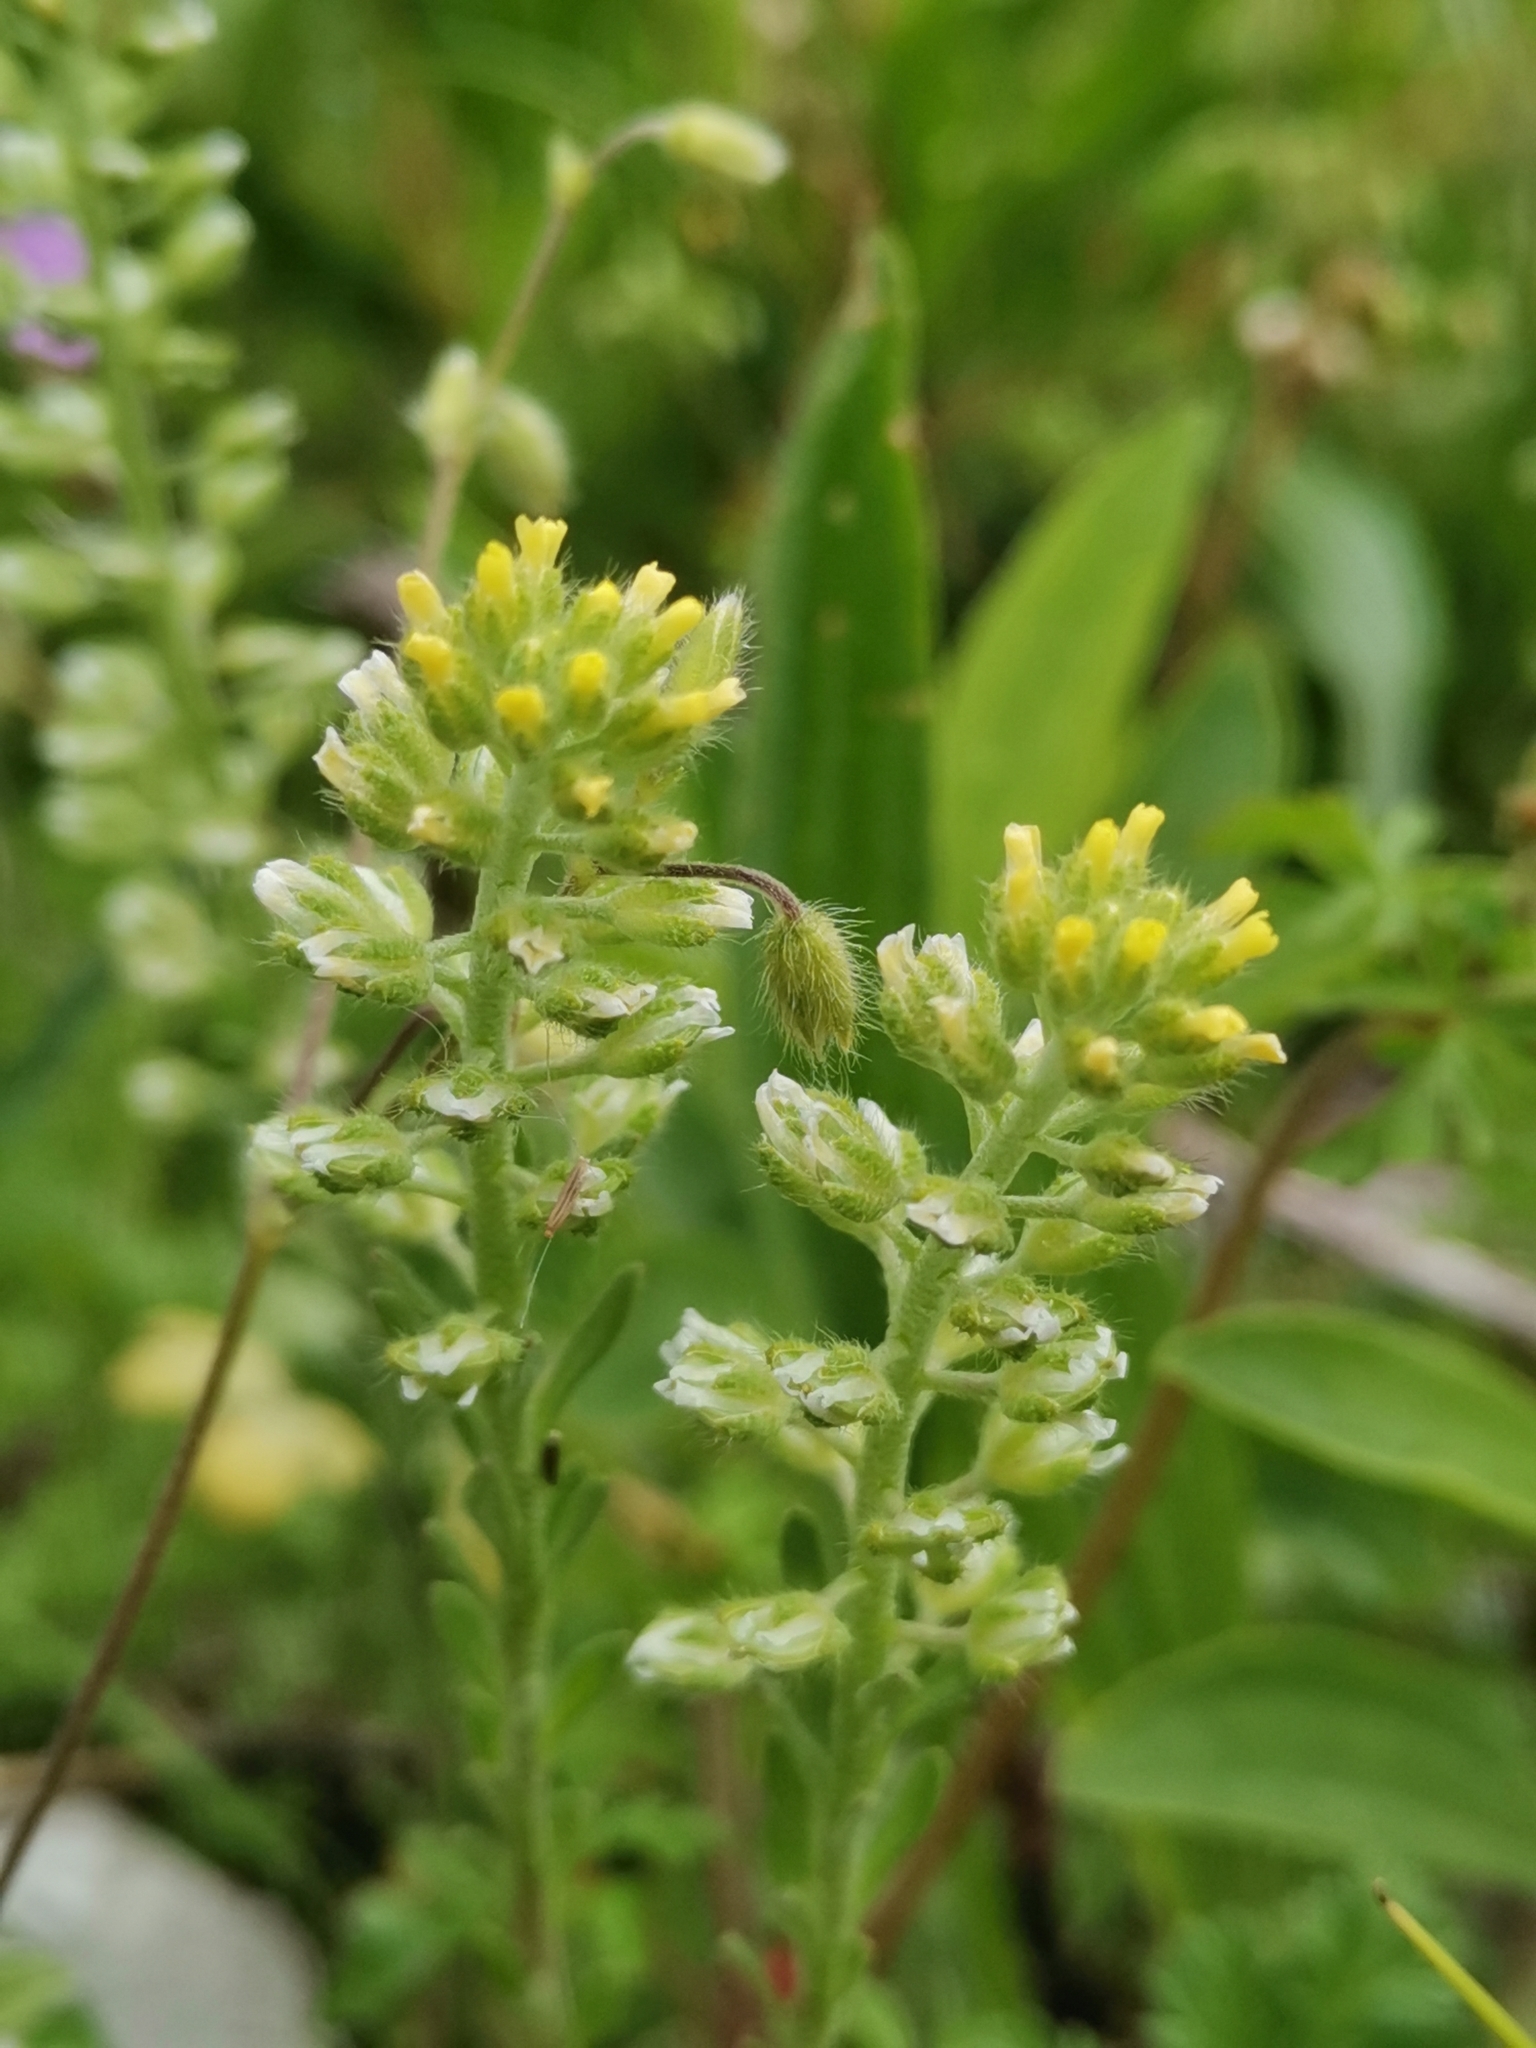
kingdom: Plantae
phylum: Tracheophyta
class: Magnoliopsida
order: Brassicales
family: Brassicaceae
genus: Alyssum
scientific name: Alyssum alyssoides
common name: Small alison
